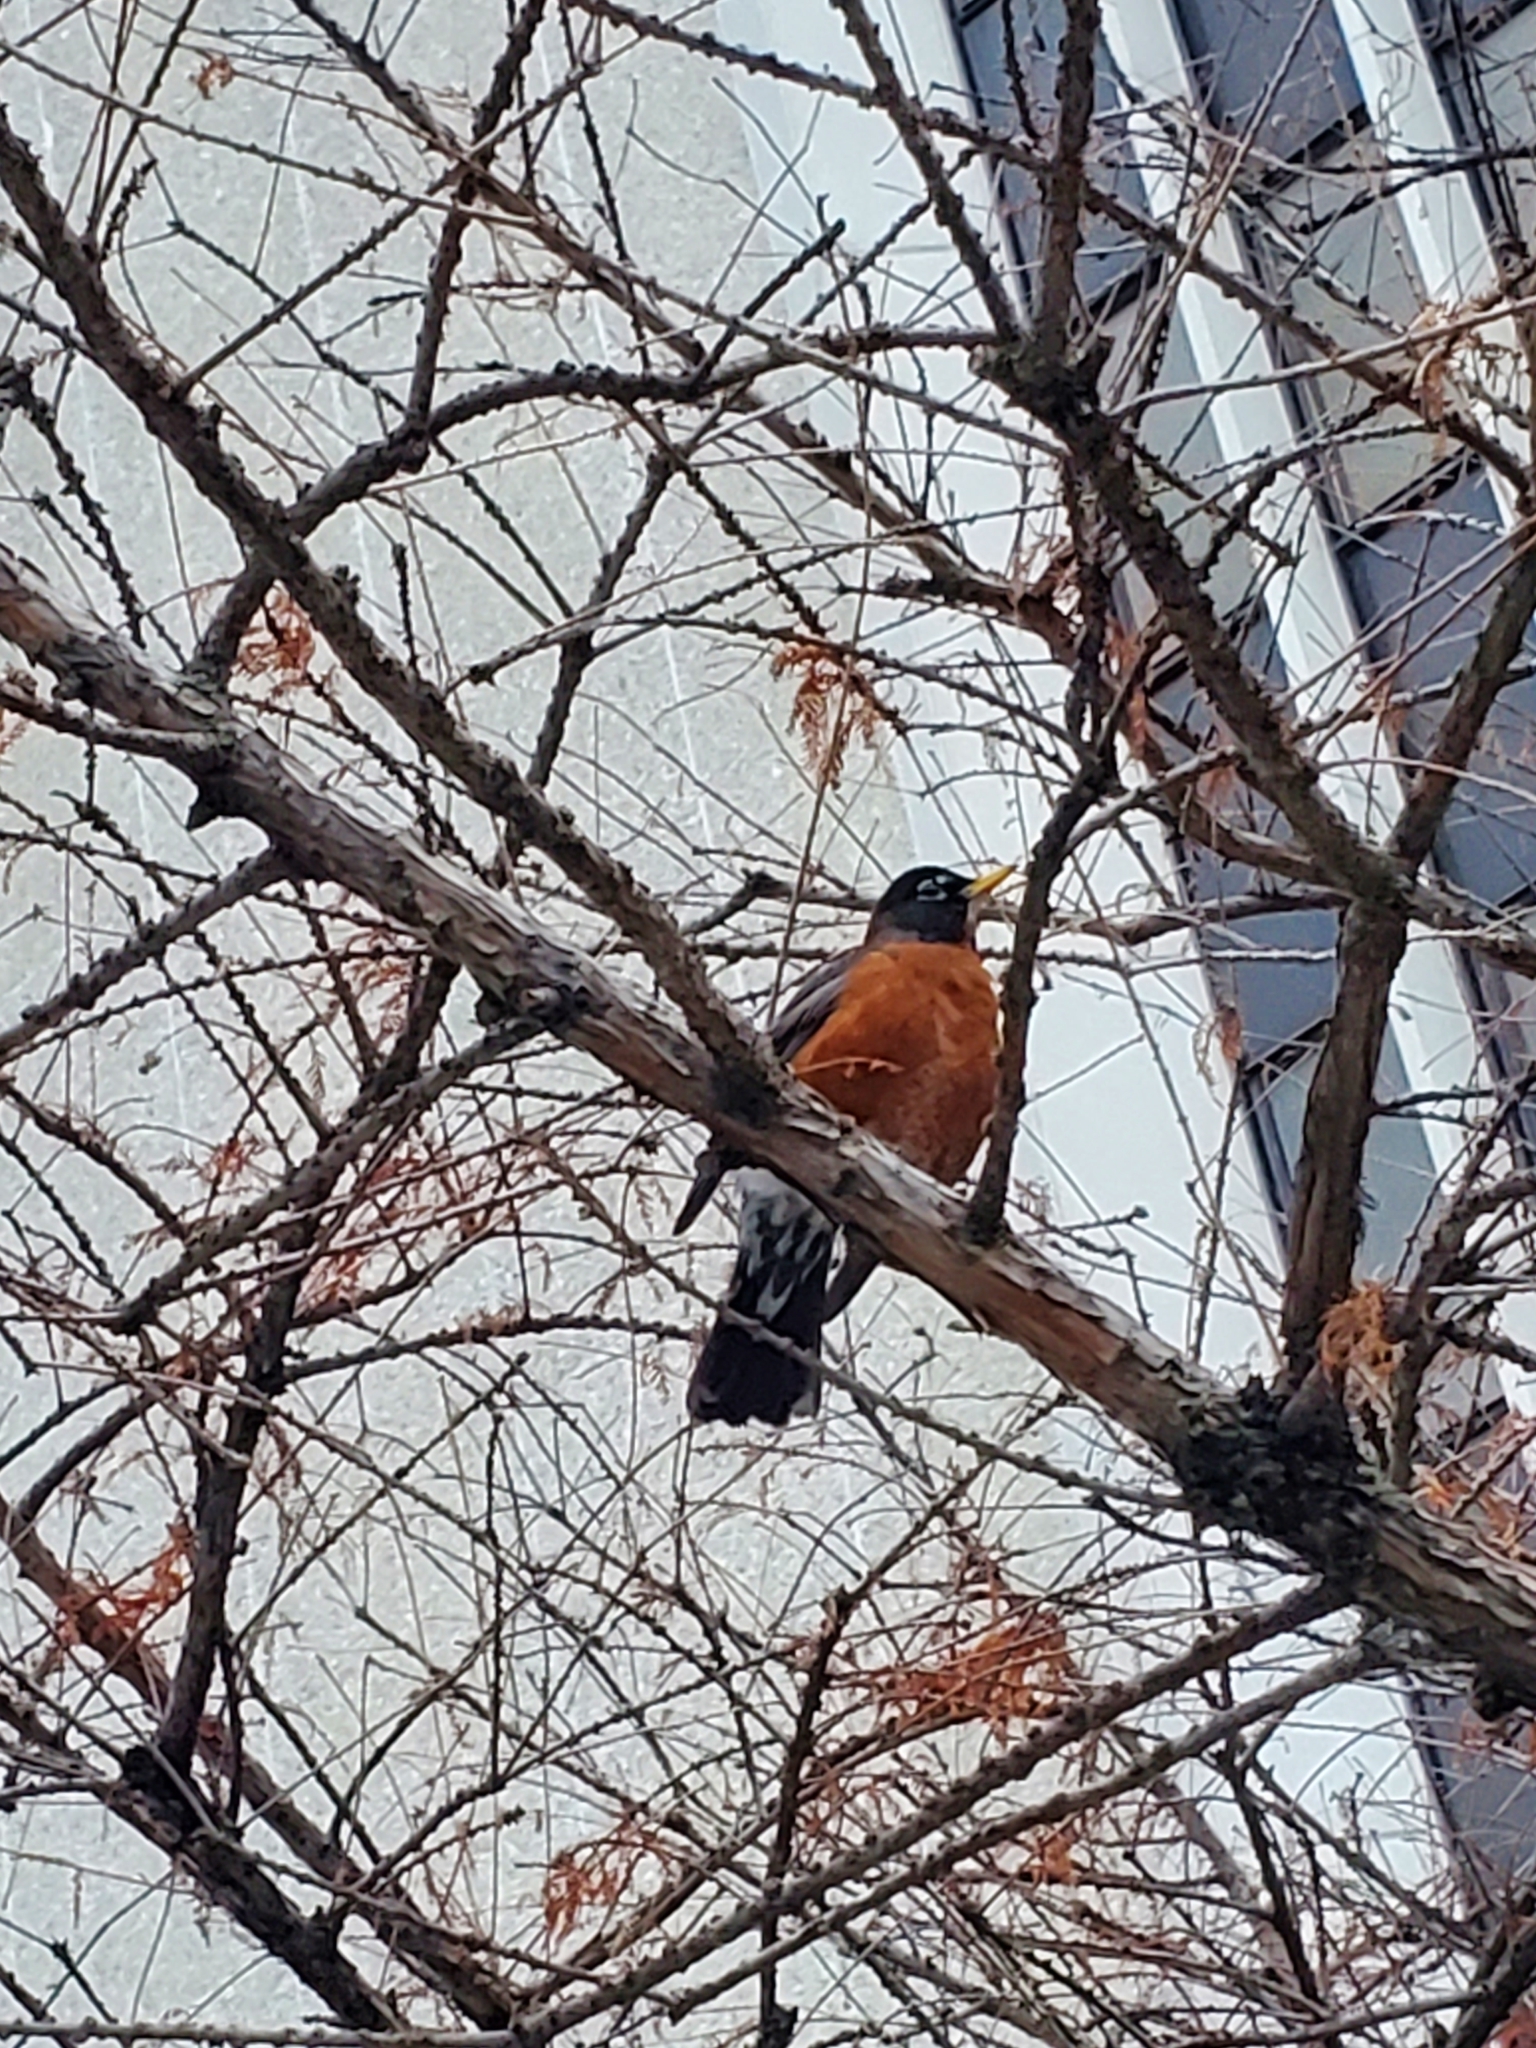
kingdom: Animalia
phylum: Chordata
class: Aves
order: Passeriformes
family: Turdidae
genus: Turdus
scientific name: Turdus migratorius
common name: American robin
